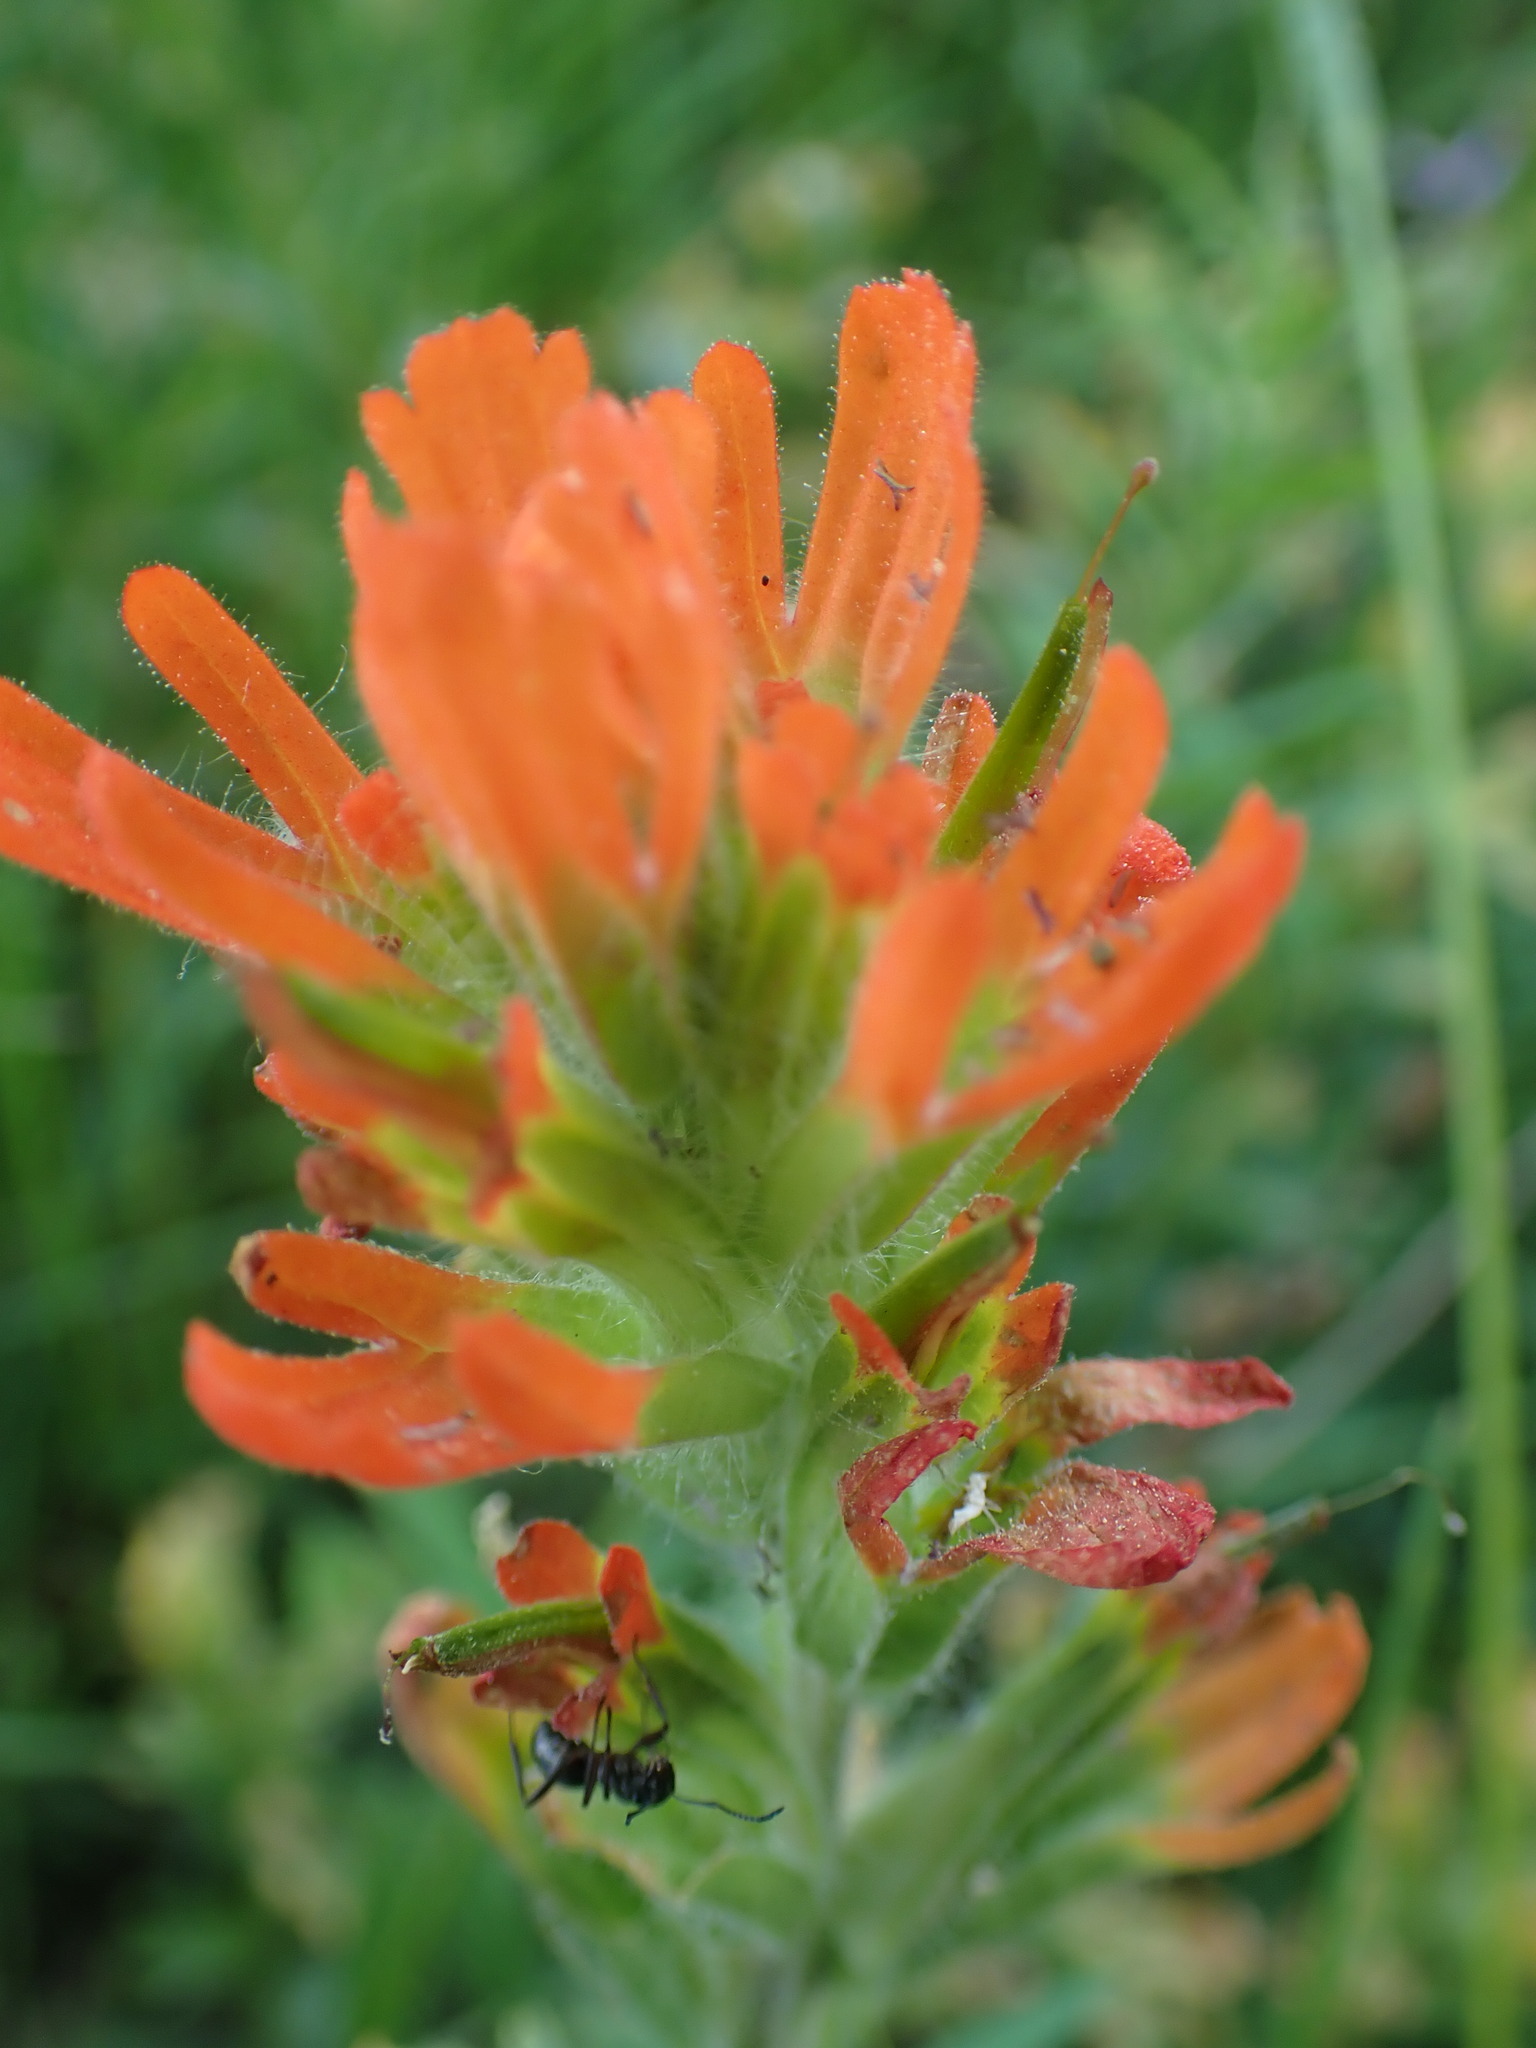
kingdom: Plantae
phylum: Tracheophyta
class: Magnoliopsida
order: Lamiales
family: Orobanchaceae
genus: Castilleja
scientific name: Castilleja hispida
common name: Bristly paintbrush
